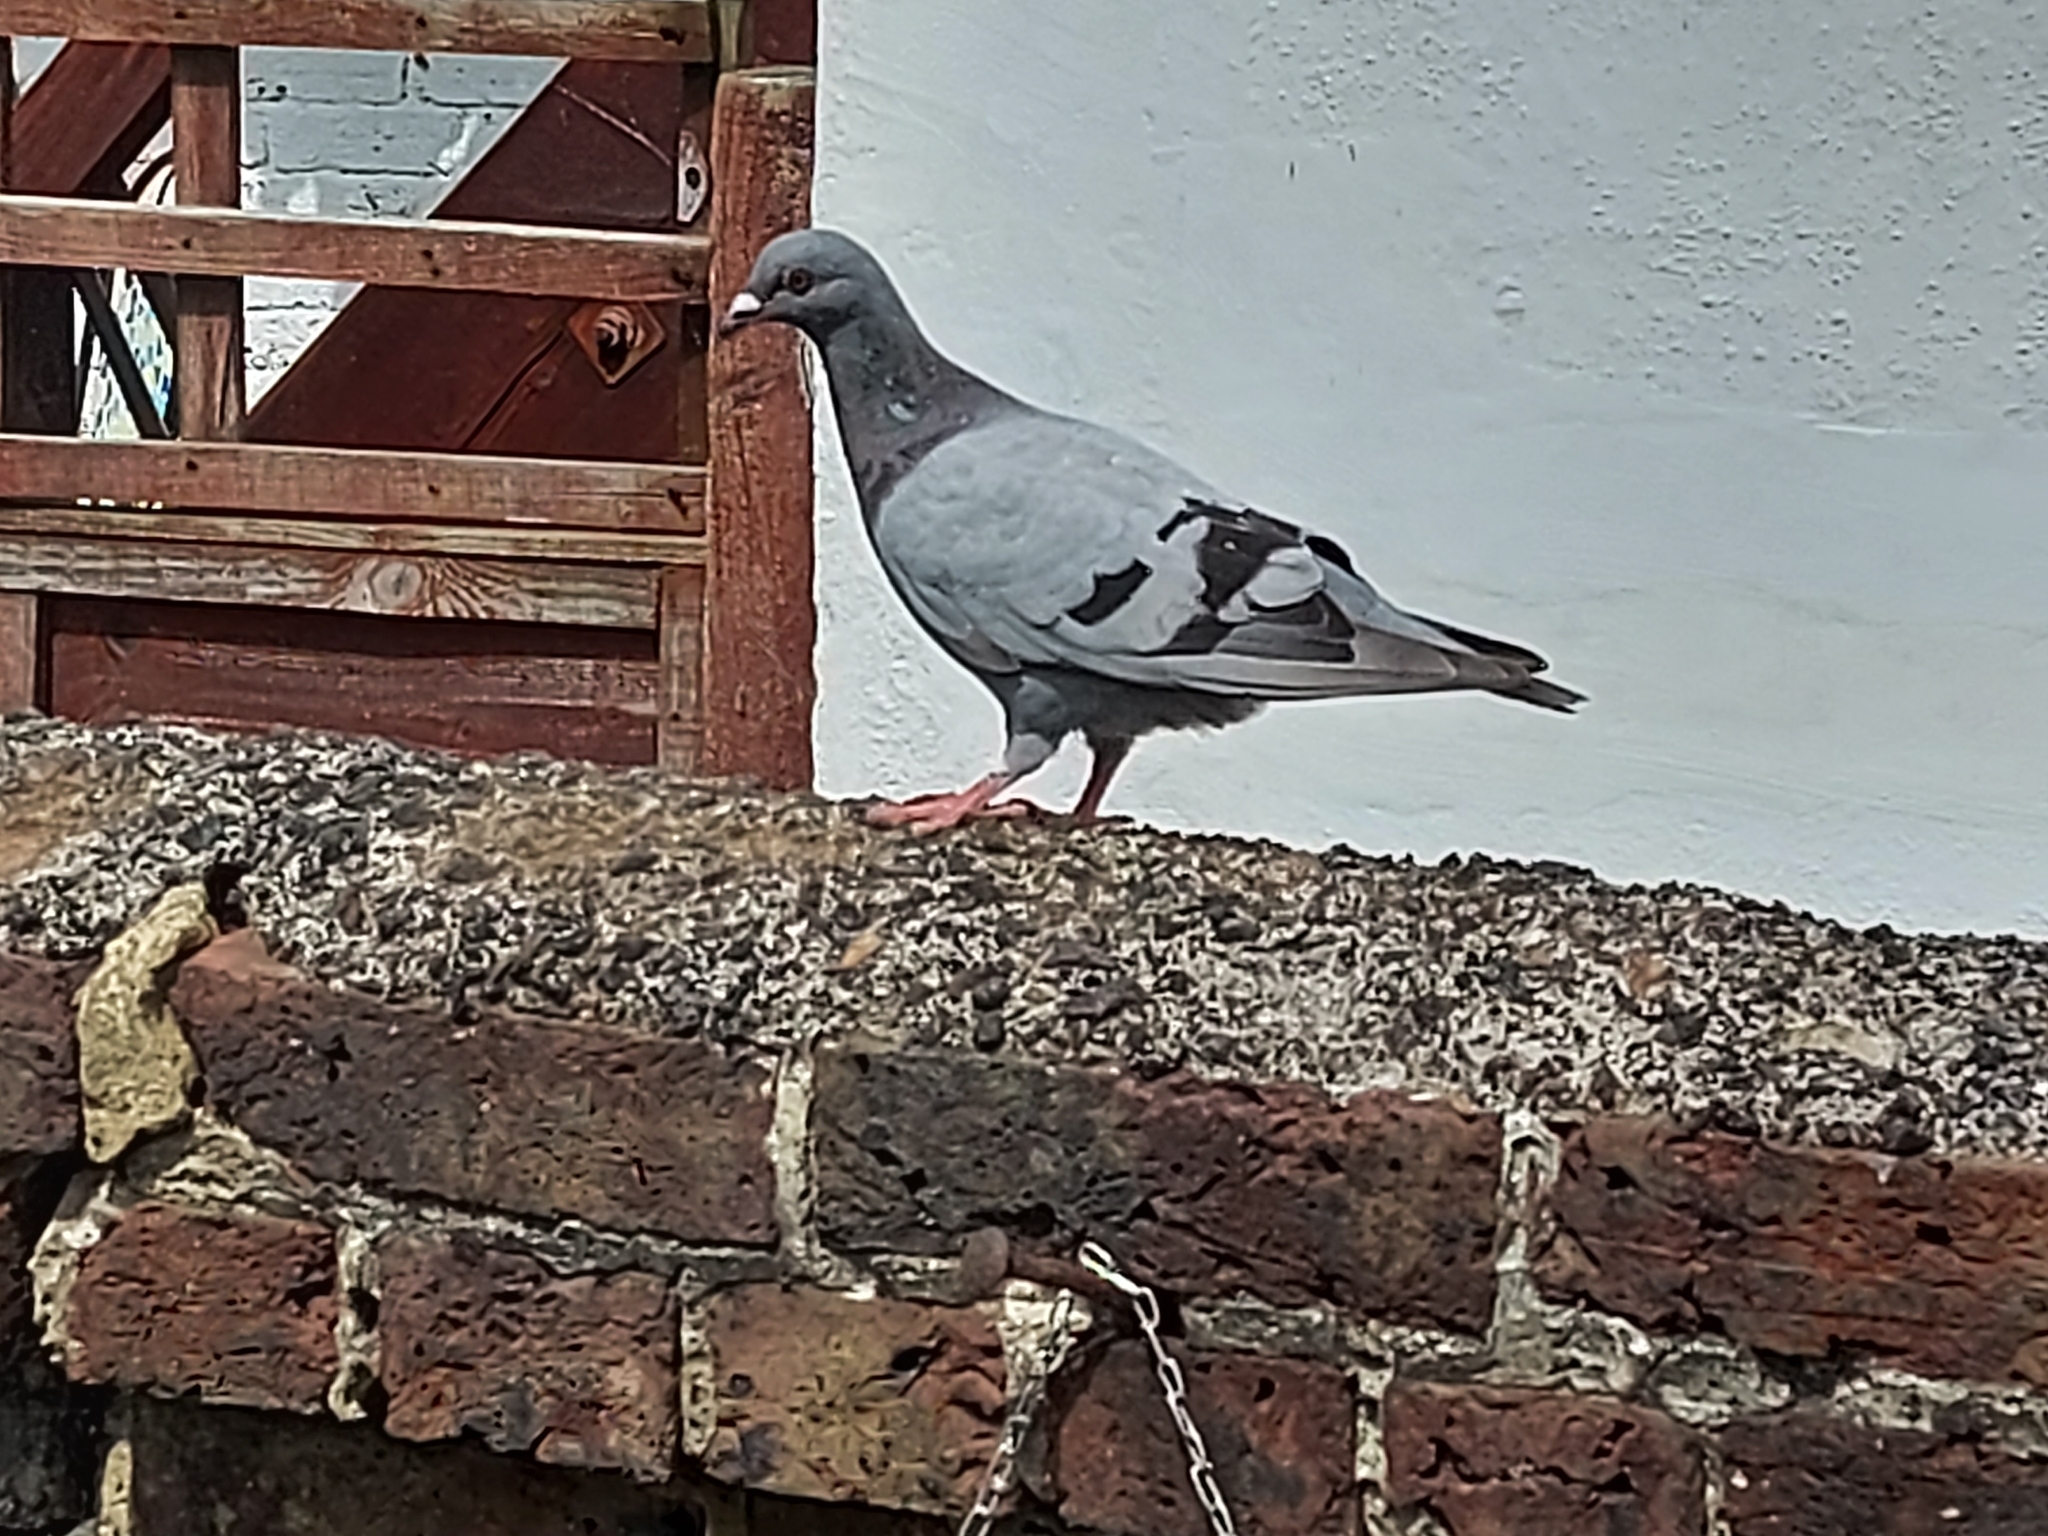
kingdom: Animalia
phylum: Chordata
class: Aves
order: Columbiformes
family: Columbidae
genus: Columba
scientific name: Columba livia
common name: Rock pigeon
